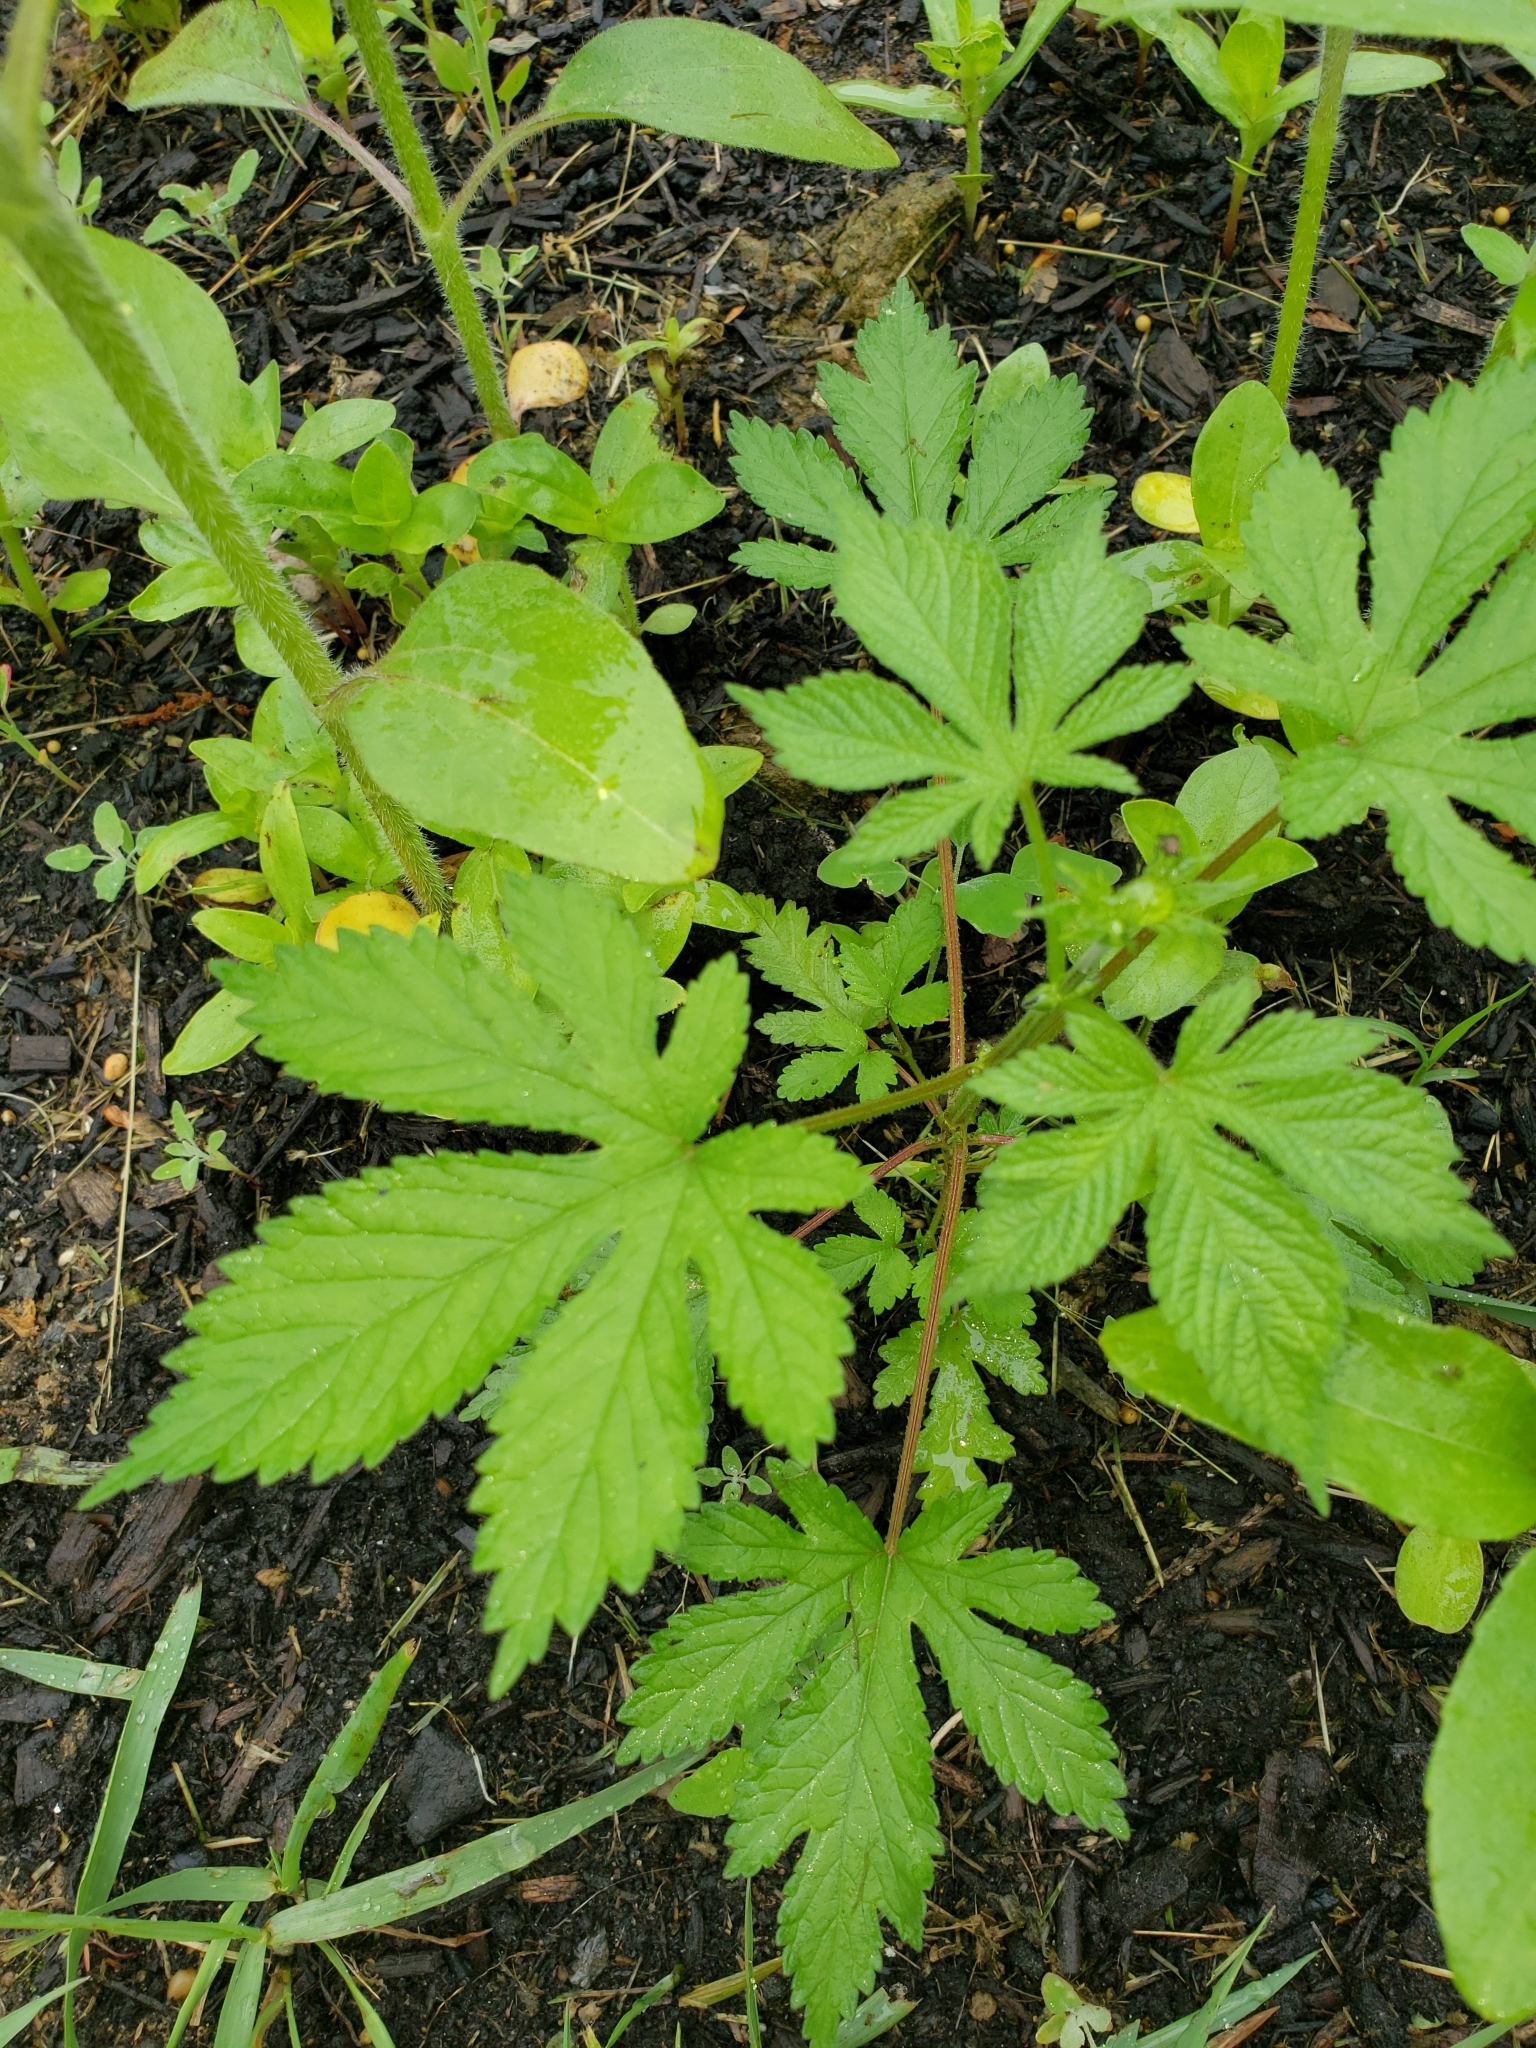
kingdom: Plantae
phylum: Tracheophyta
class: Magnoliopsida
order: Rosales
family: Cannabaceae
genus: Humulus
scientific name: Humulus scandens
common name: Japanese hop
